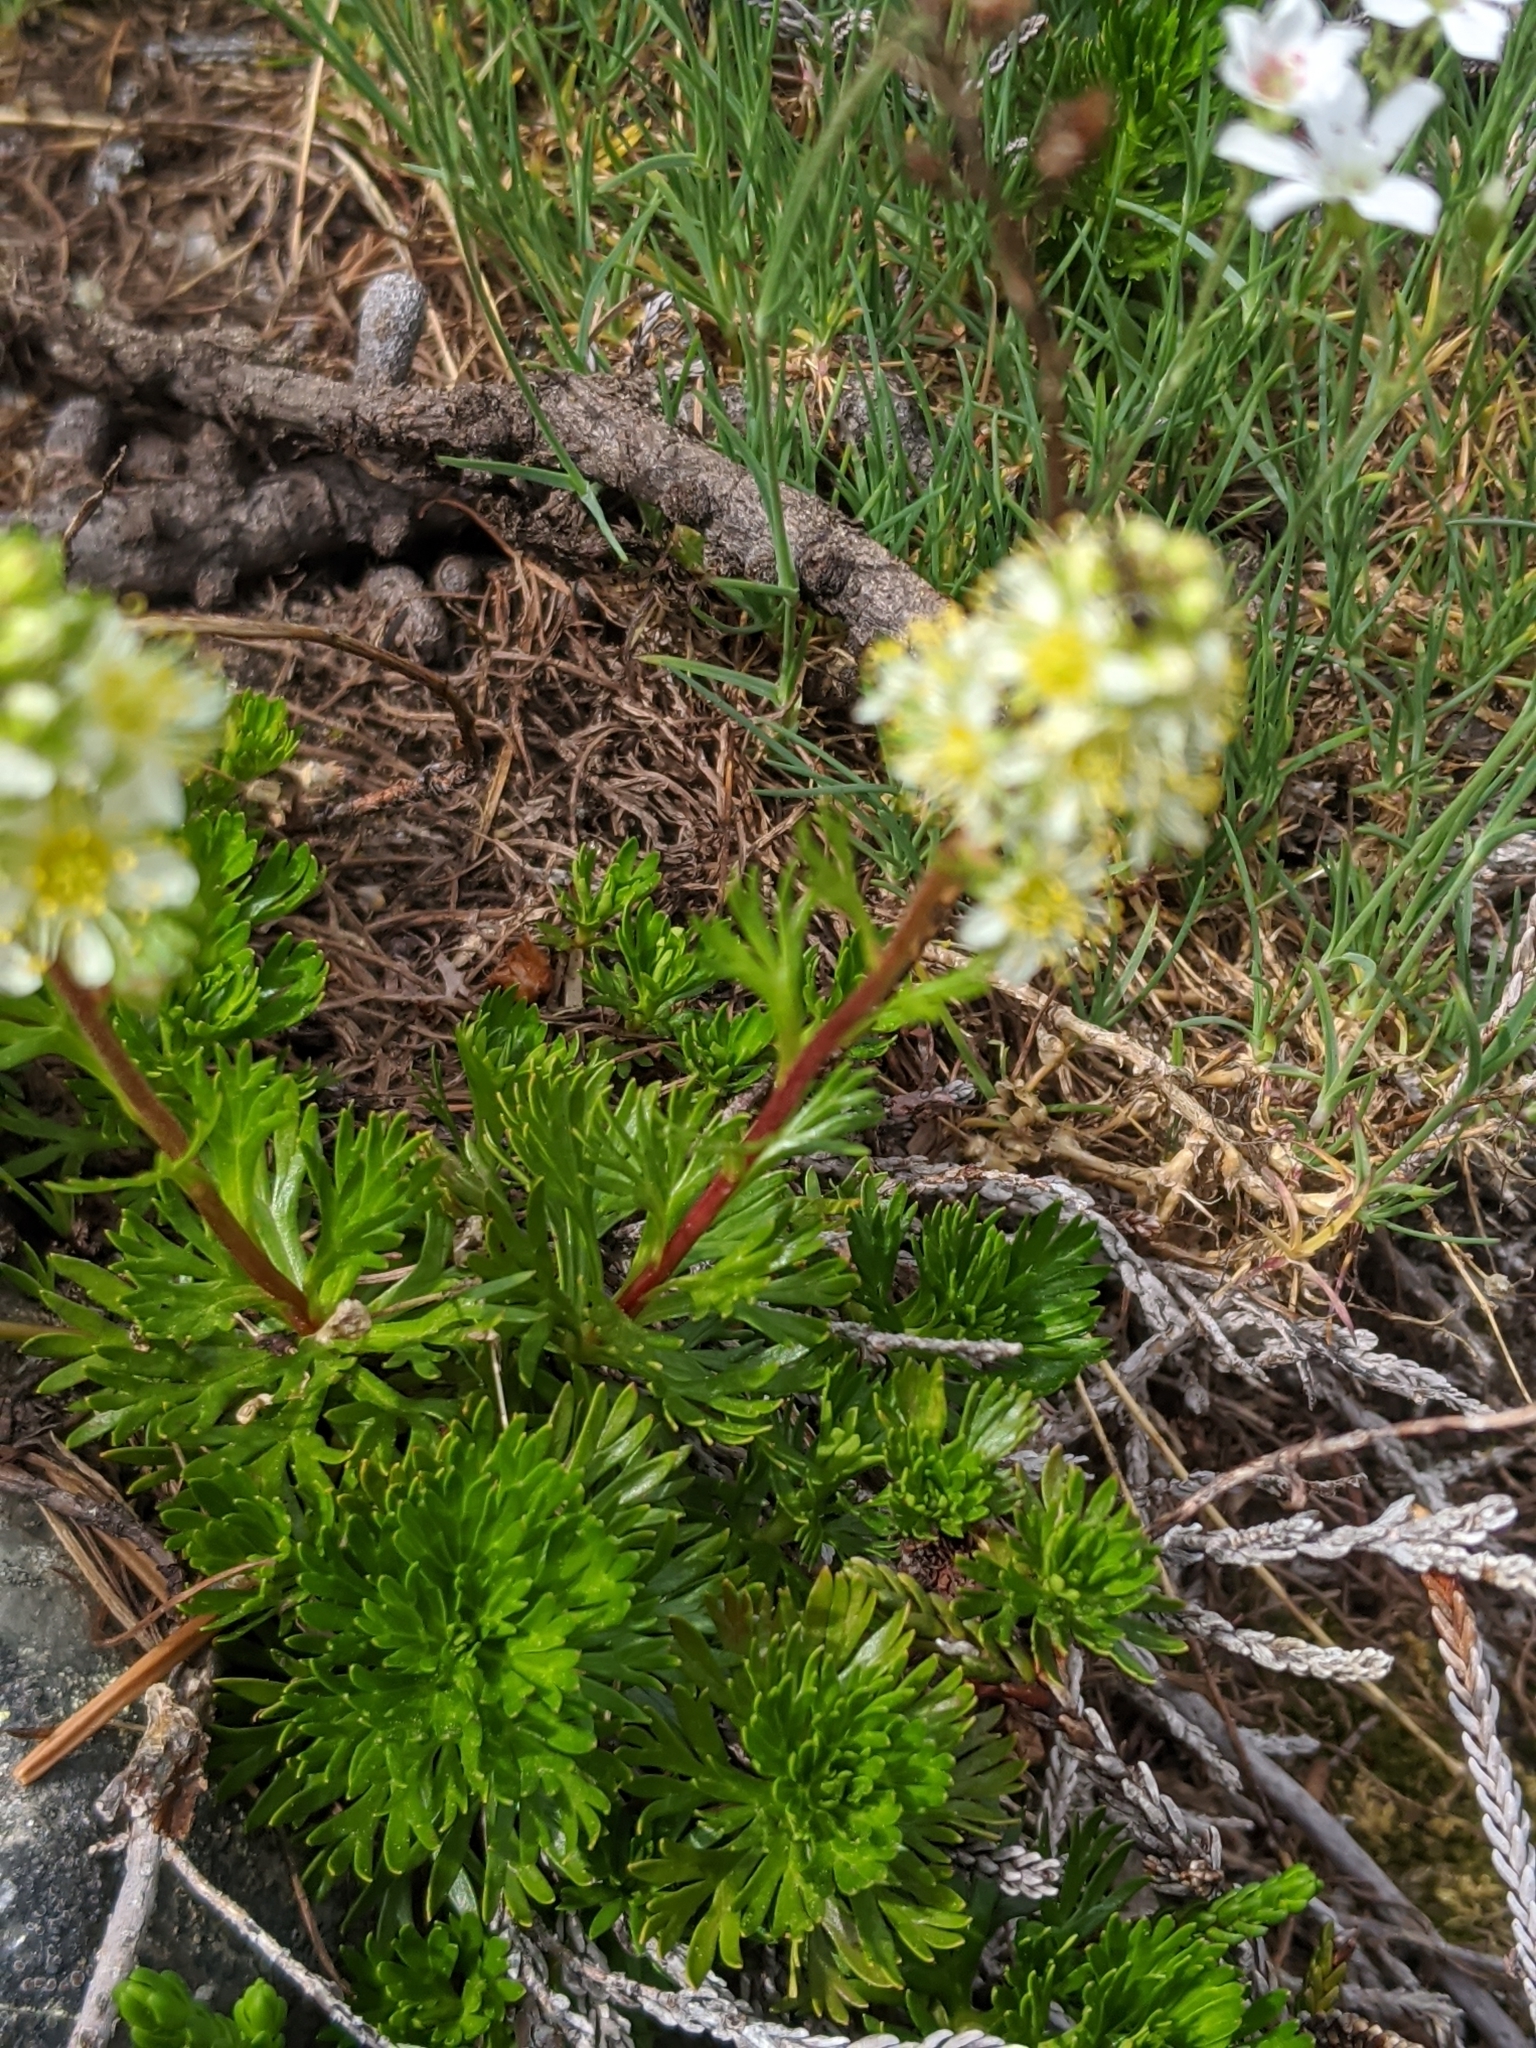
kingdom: Plantae
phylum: Tracheophyta
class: Magnoliopsida
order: Rosales
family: Rosaceae
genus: Luetkea
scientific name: Luetkea pectinata
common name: Partridgefoot
